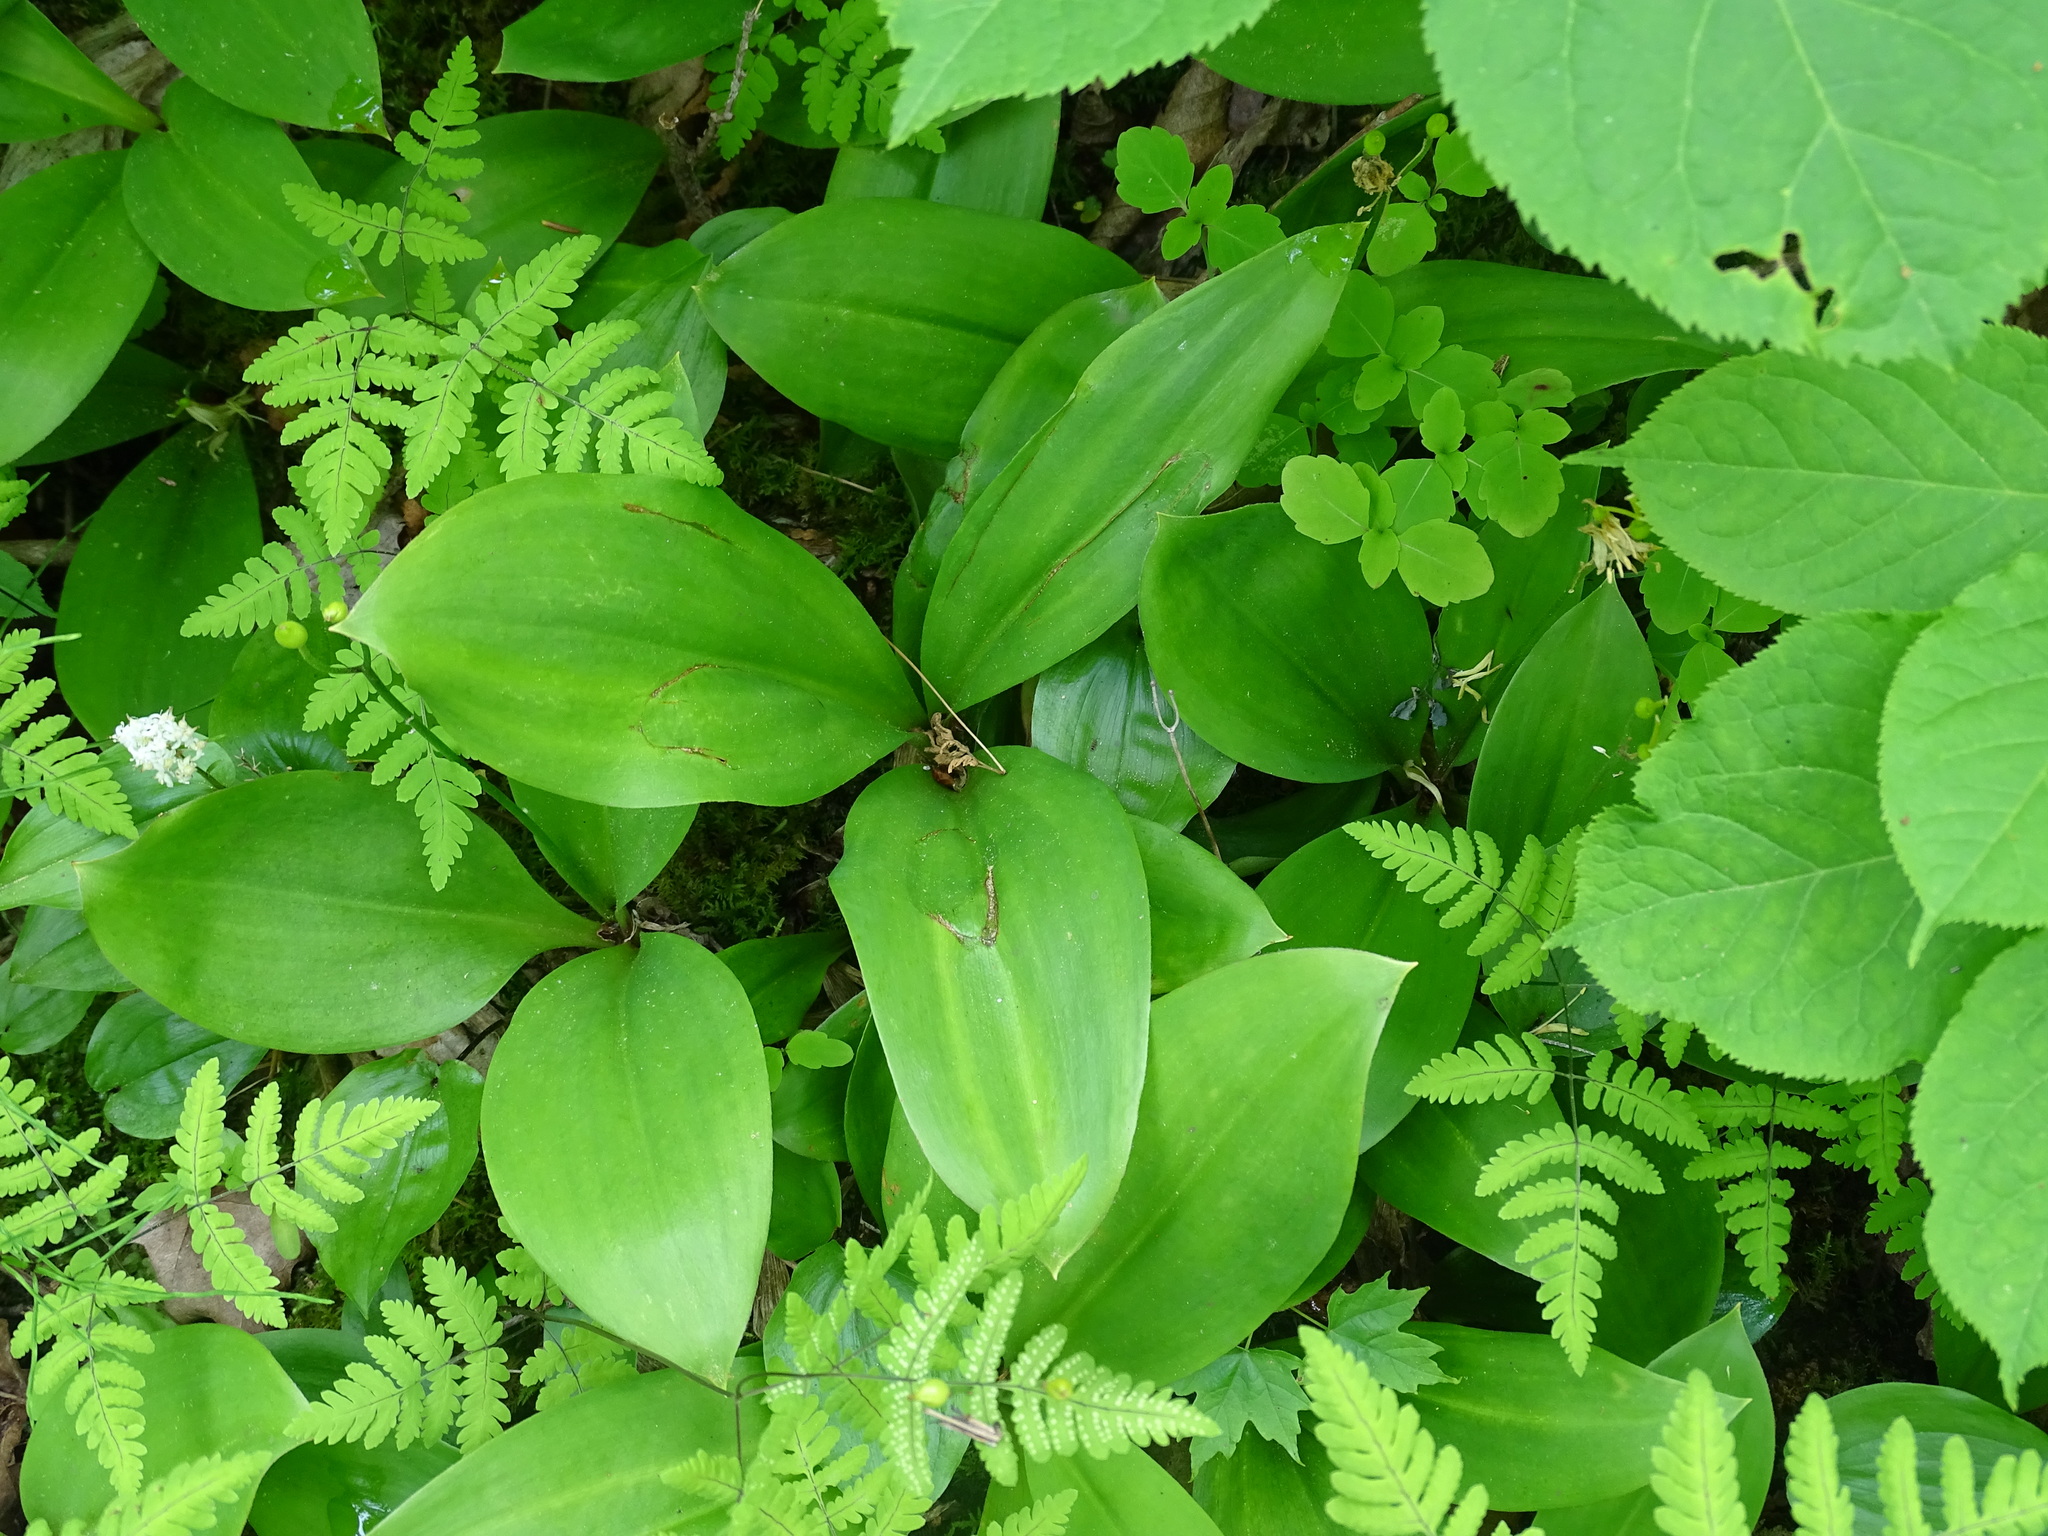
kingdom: Plantae
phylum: Tracheophyta
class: Liliopsida
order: Liliales
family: Liliaceae
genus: Clintonia
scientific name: Clintonia borealis
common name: Yellow clintonia
